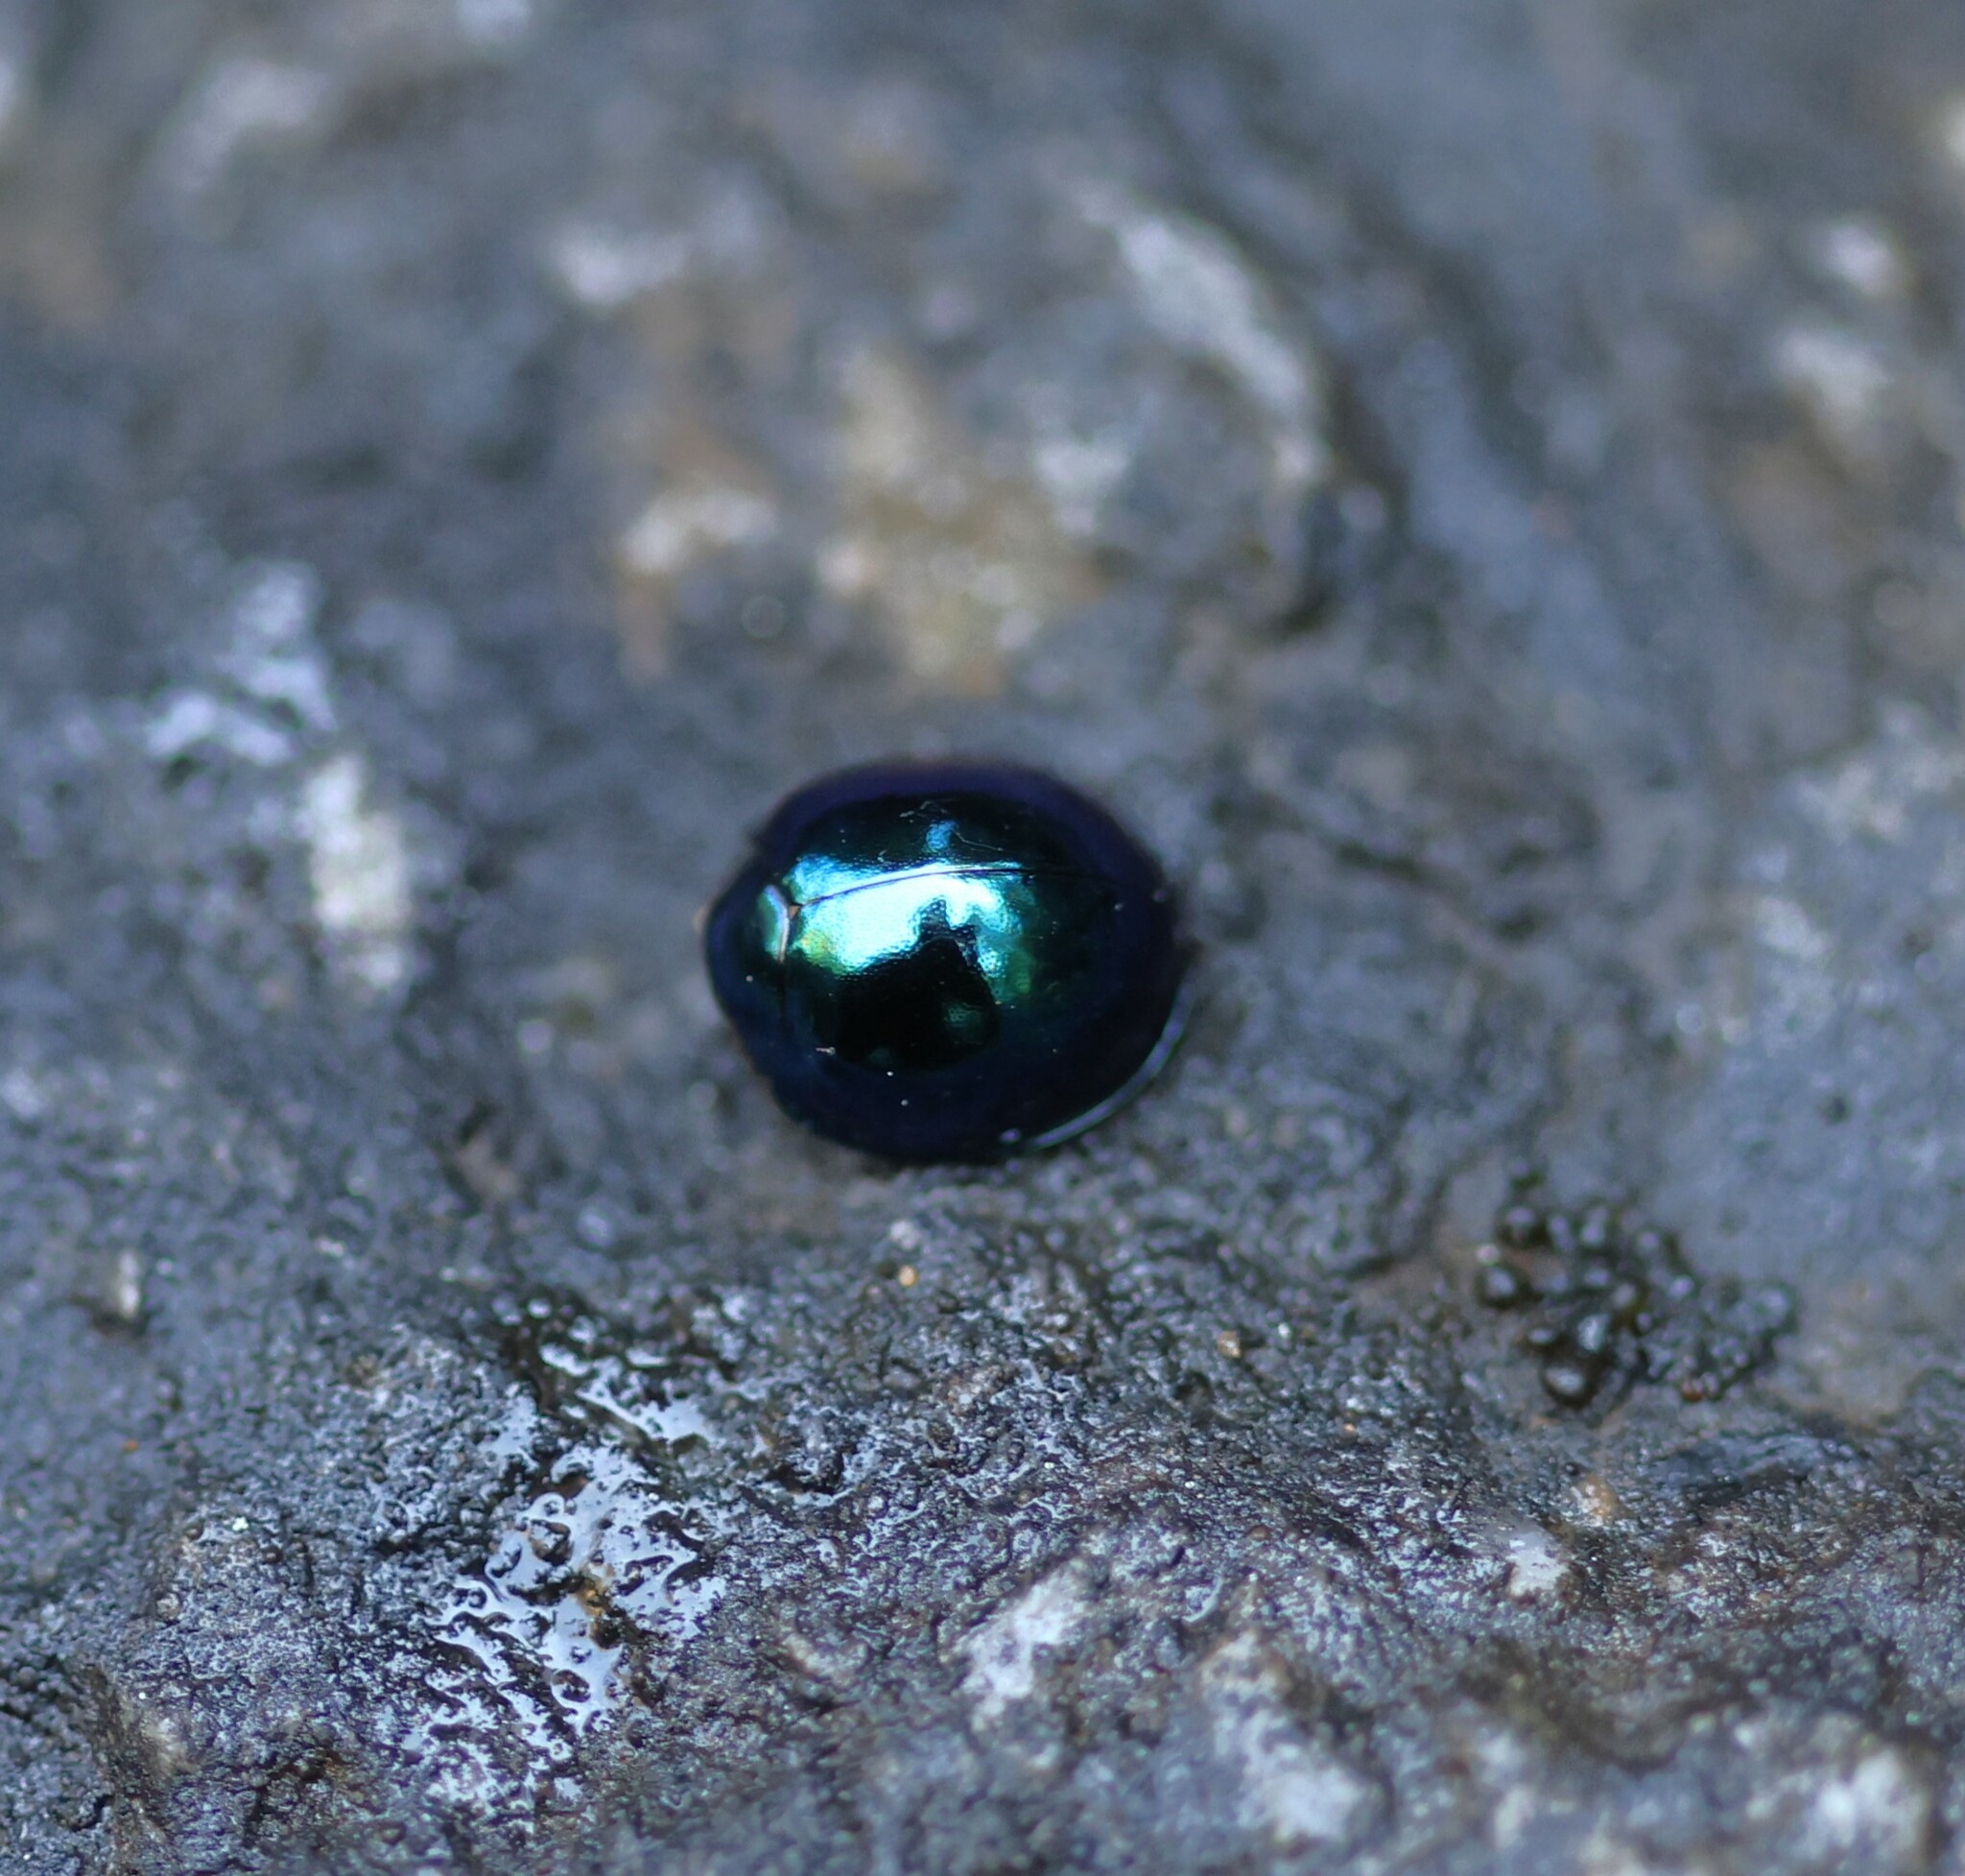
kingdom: Animalia
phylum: Arthropoda
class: Insecta
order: Coleoptera
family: Coccinellidae
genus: Halmus
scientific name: Halmus chalybeus
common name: Steel blue ladybird beetle
